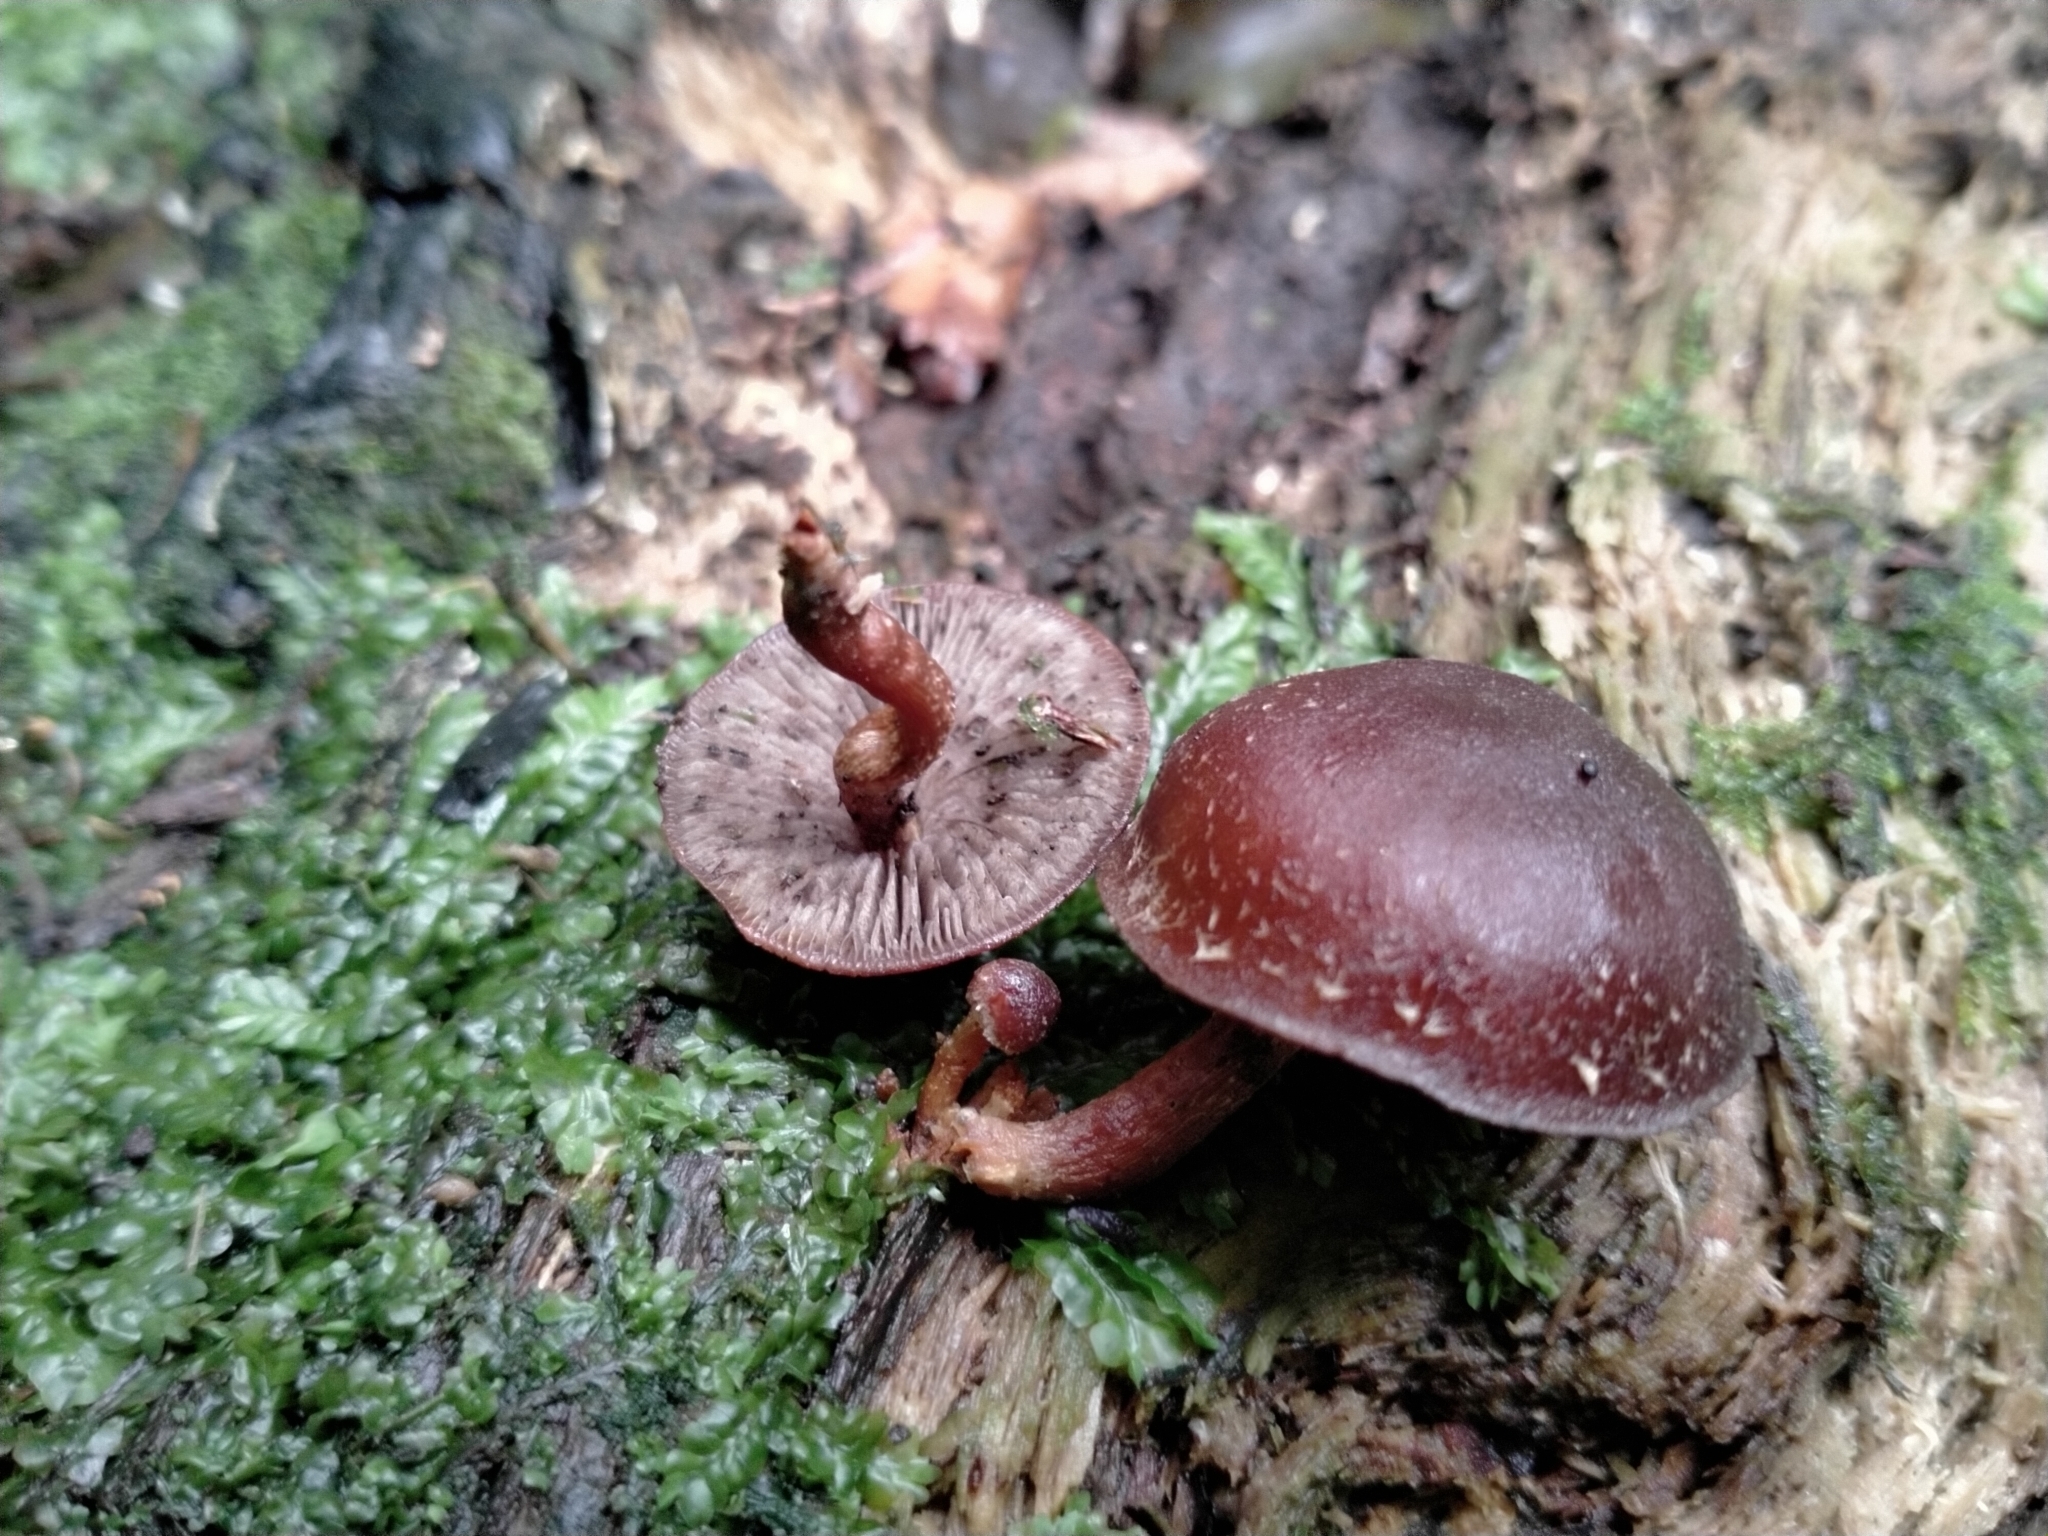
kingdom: Fungi
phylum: Basidiomycota
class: Agaricomycetes
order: Agaricales
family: Strophariaceae
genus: Hypholoma
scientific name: Hypholoma brunneum
